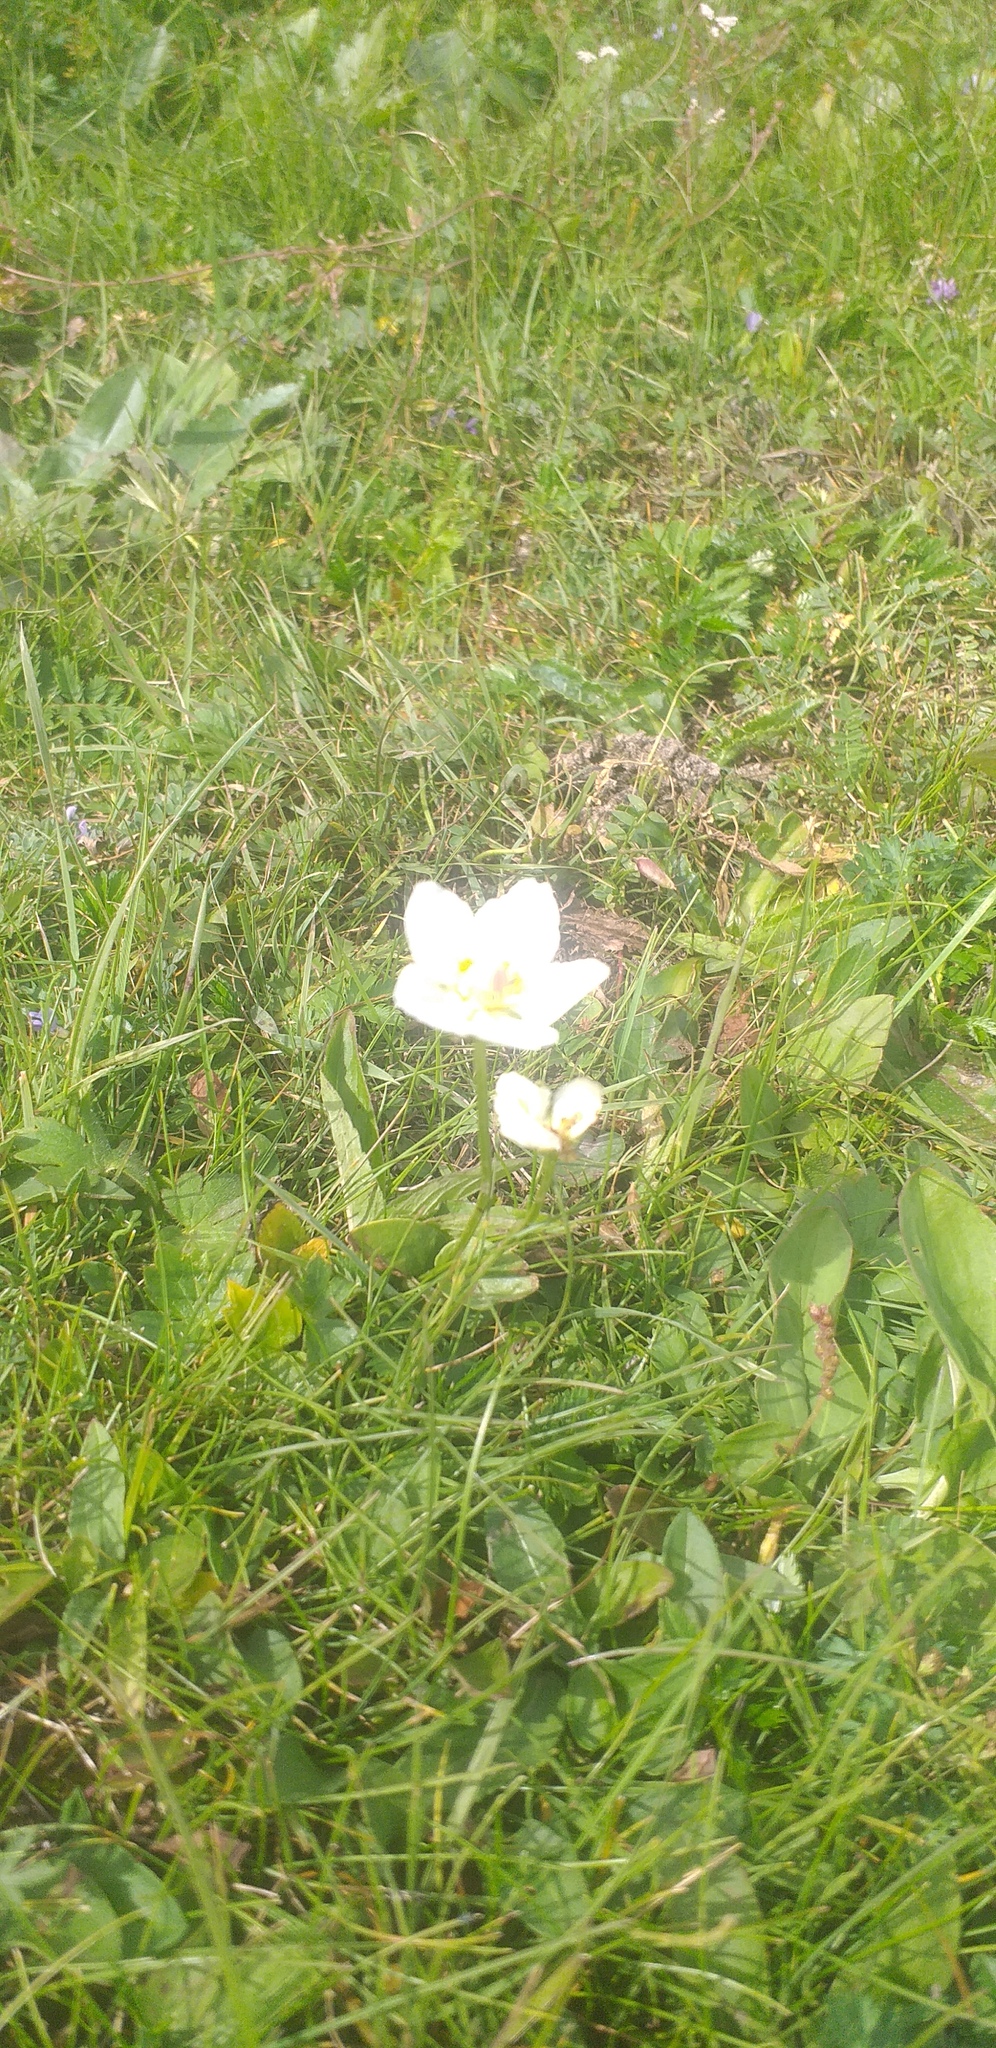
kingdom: Plantae
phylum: Tracheophyta
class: Magnoliopsida
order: Celastrales
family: Parnassiaceae
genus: Parnassia
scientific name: Parnassia palustris
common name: Grass-of-parnassus
